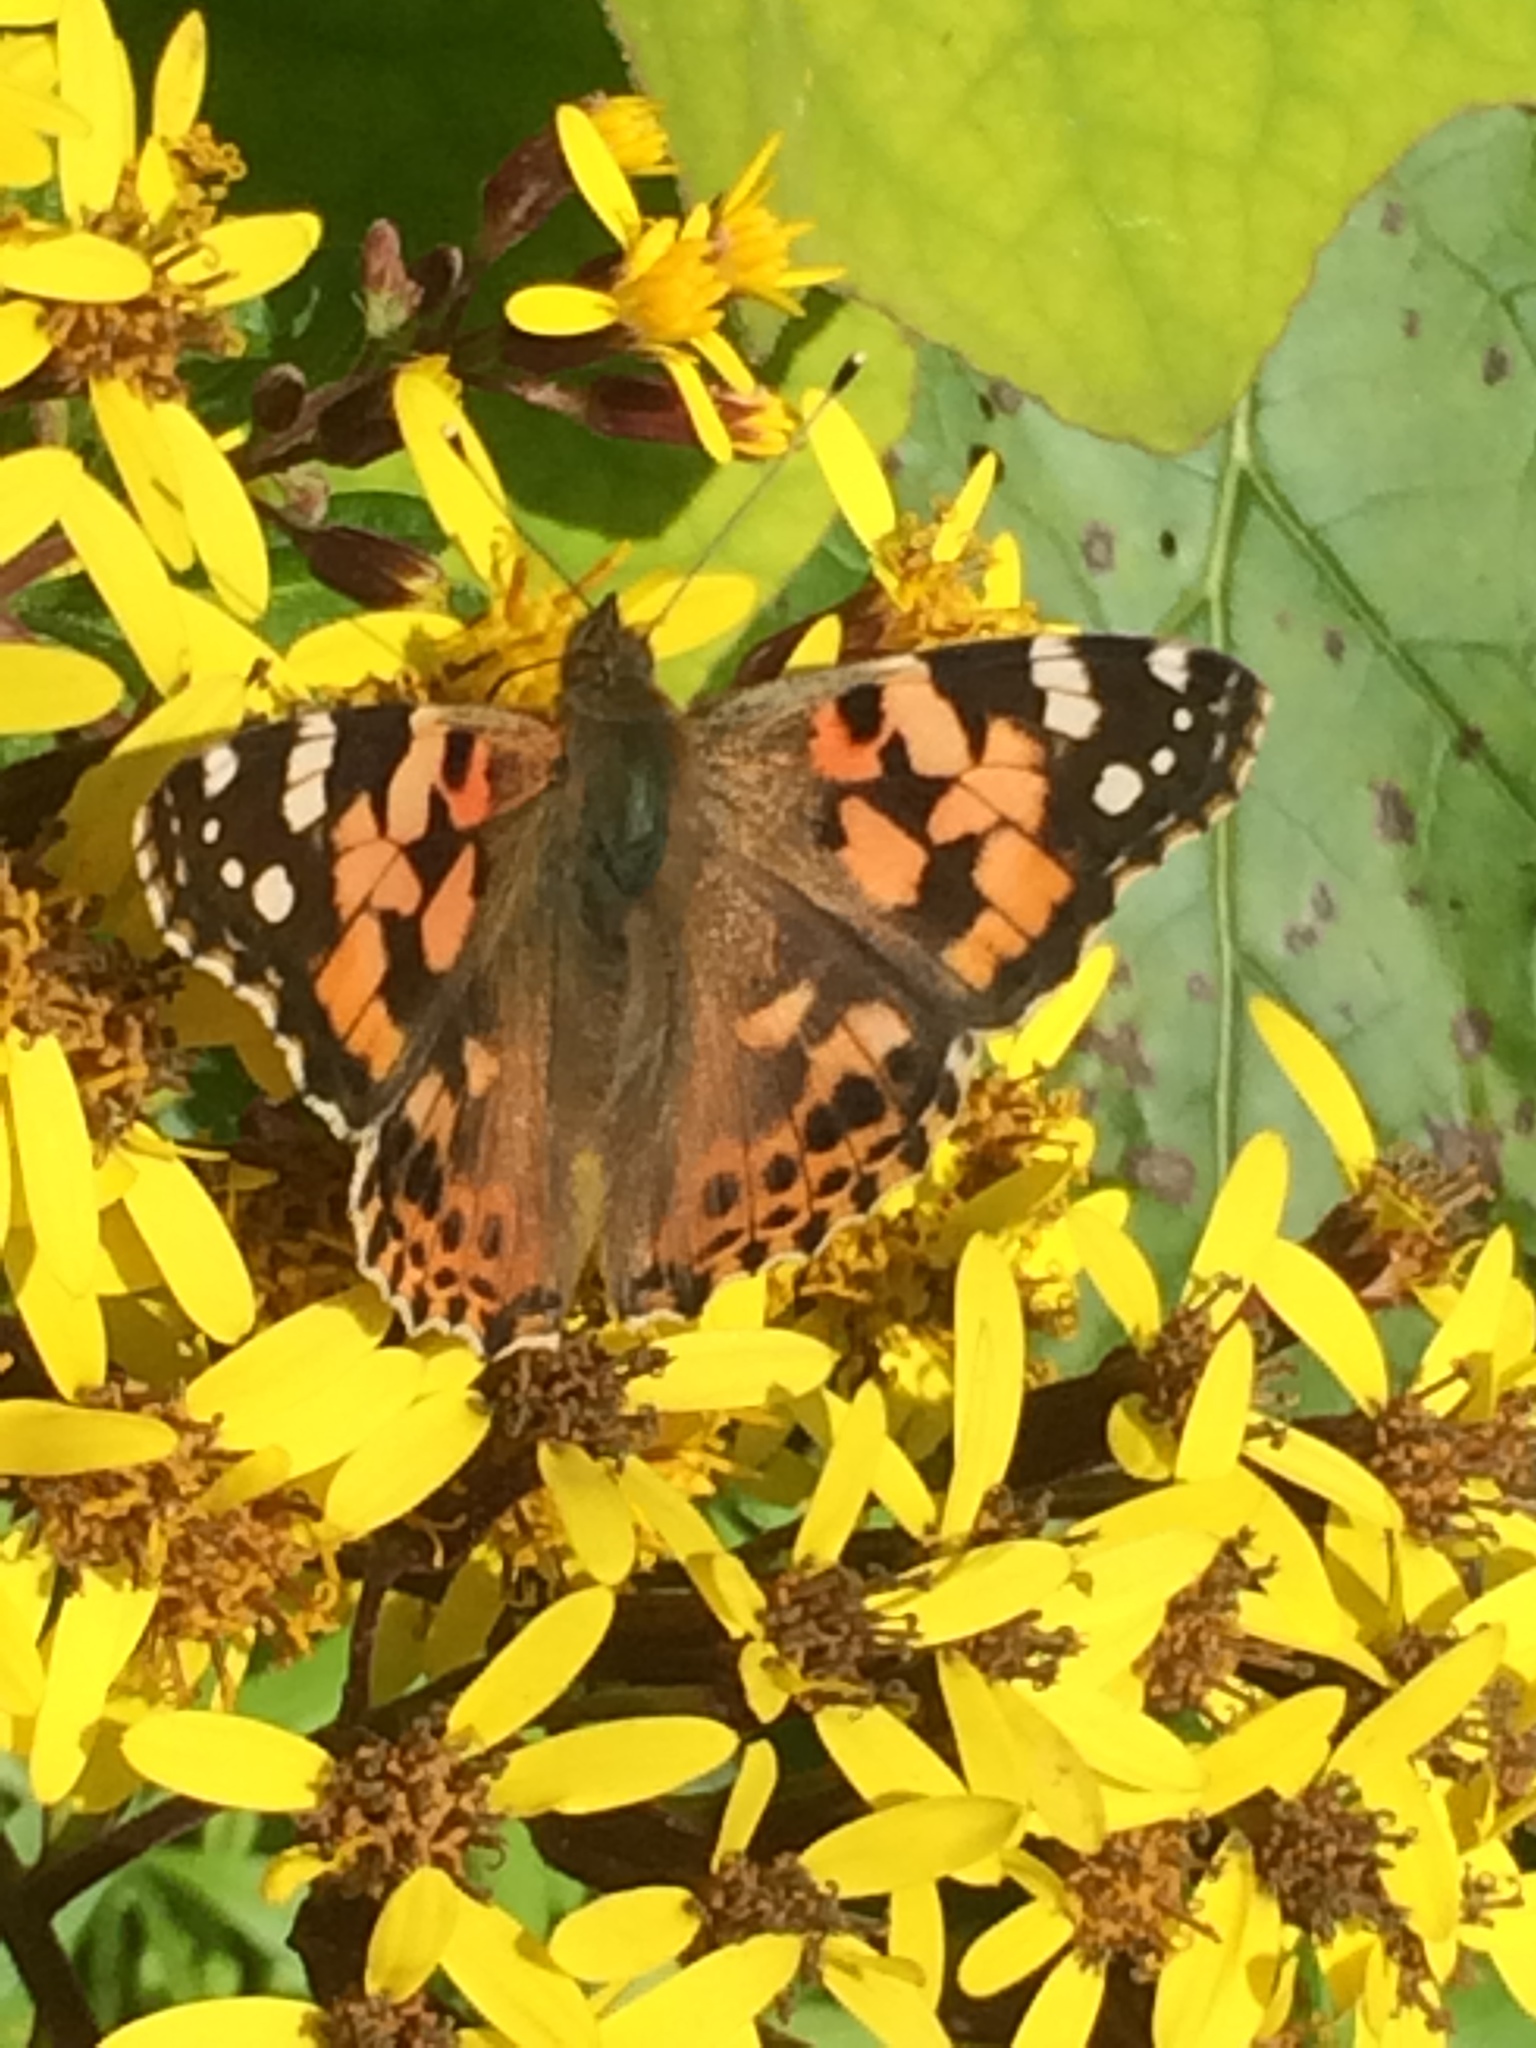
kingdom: Animalia
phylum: Arthropoda
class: Insecta
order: Lepidoptera
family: Nymphalidae
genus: Vanessa
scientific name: Vanessa cardui
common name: Painted lady
